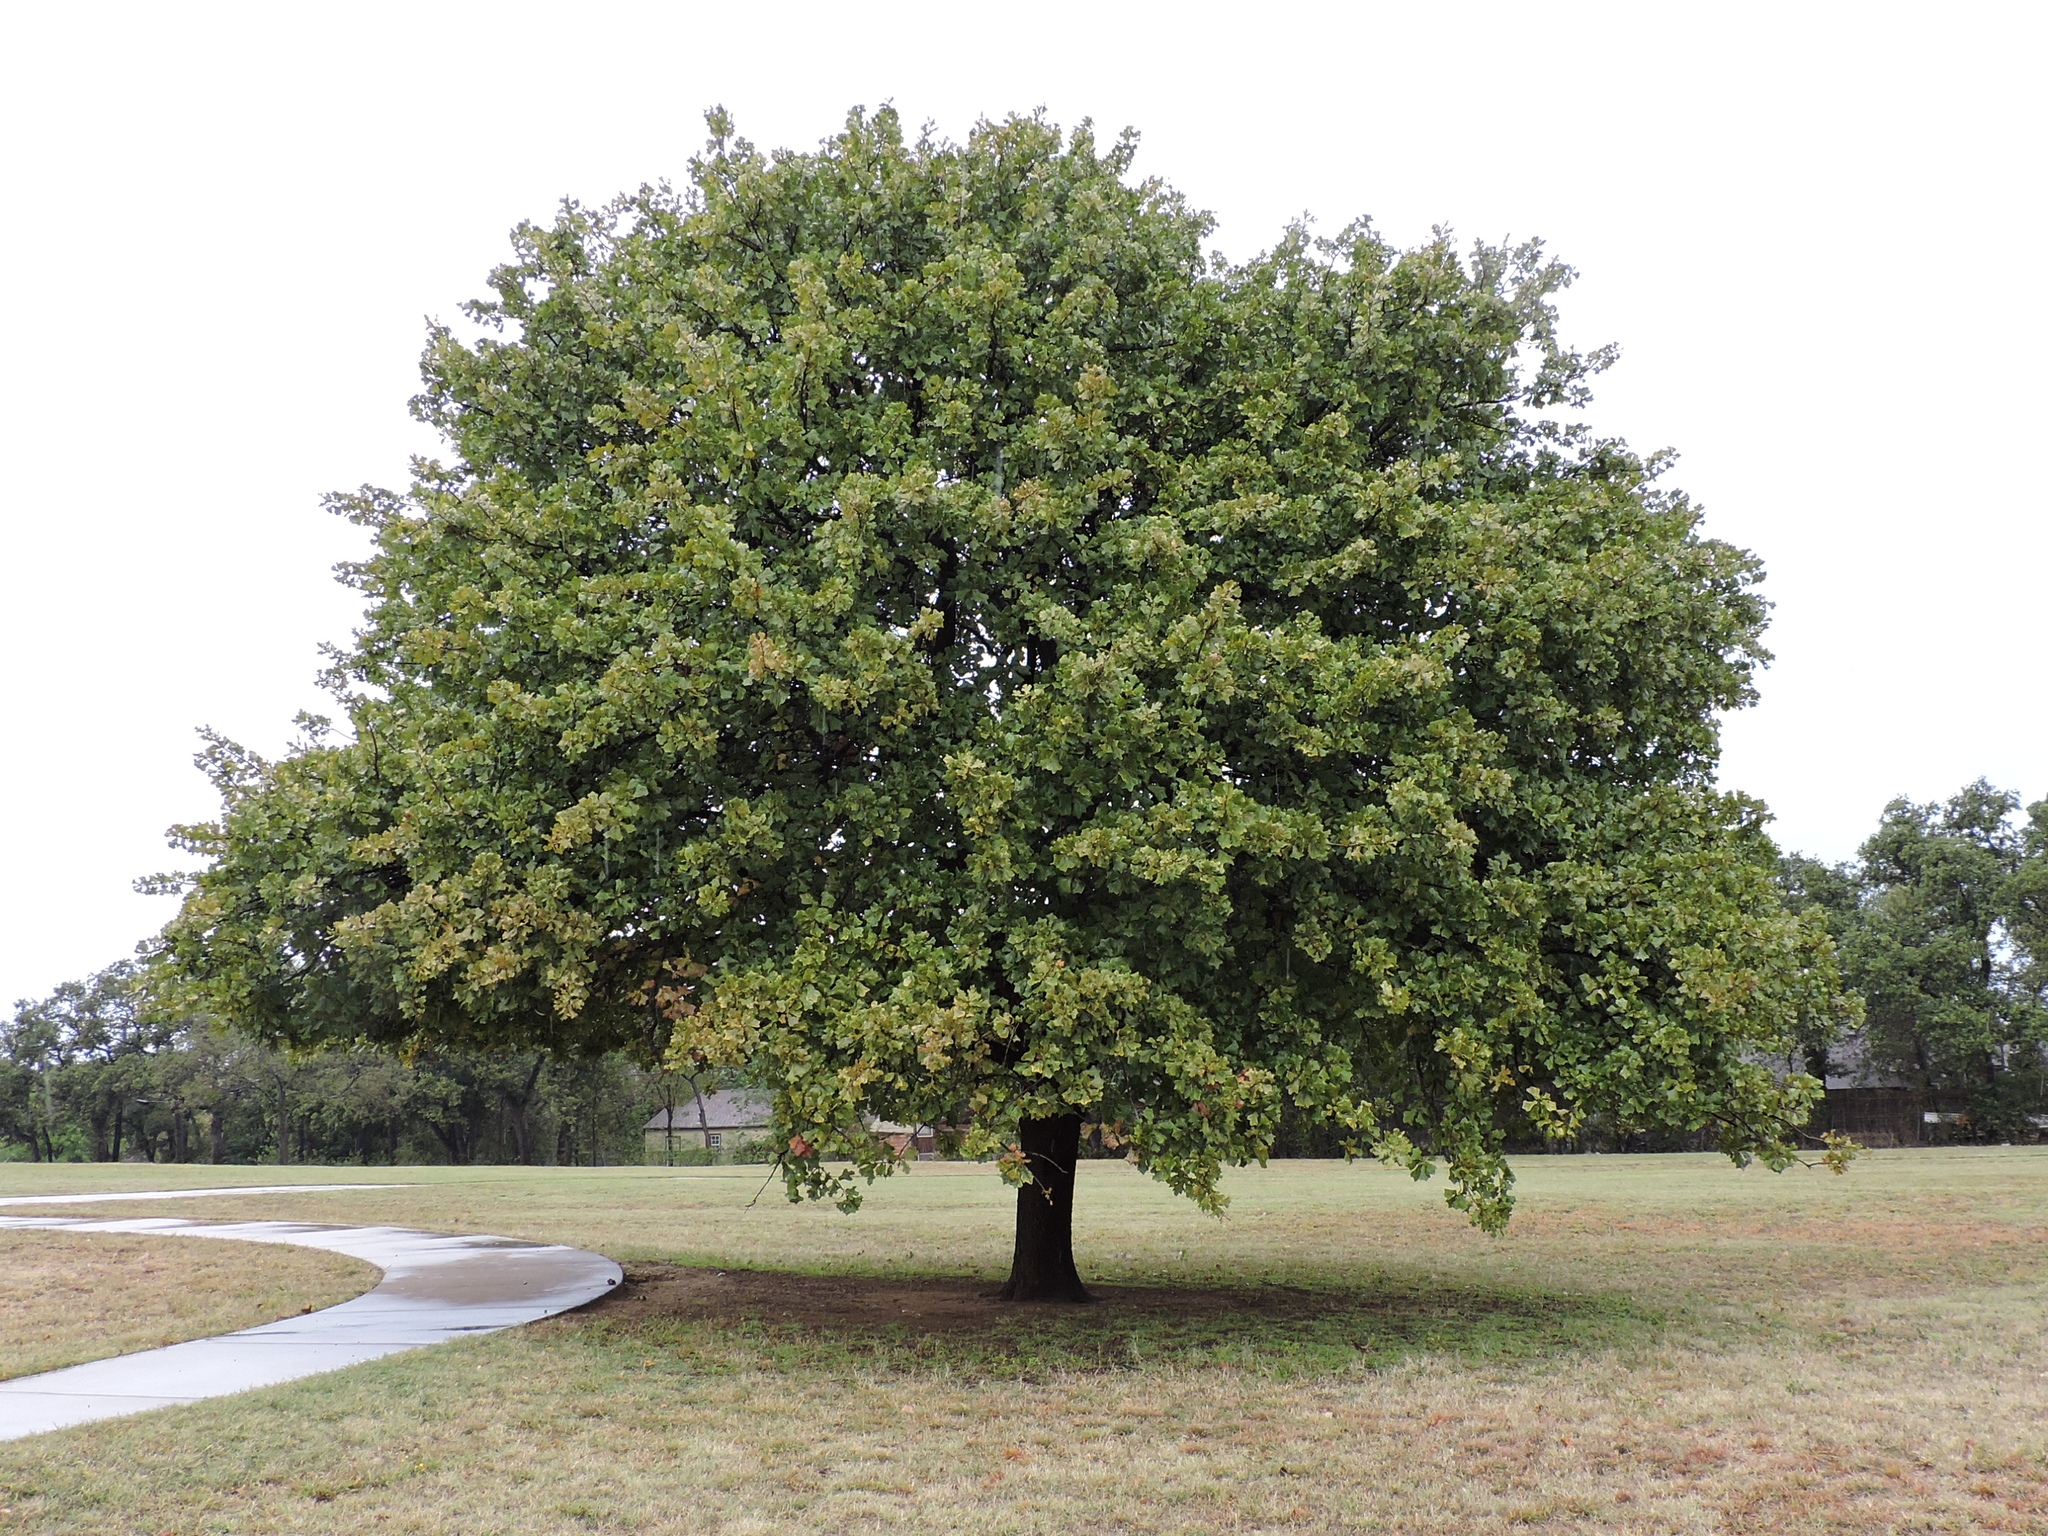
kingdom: Plantae
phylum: Tracheophyta
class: Magnoliopsida
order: Fagales
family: Fagaceae
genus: Quercus
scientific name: Quercus marilandica
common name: Blackjack oak
